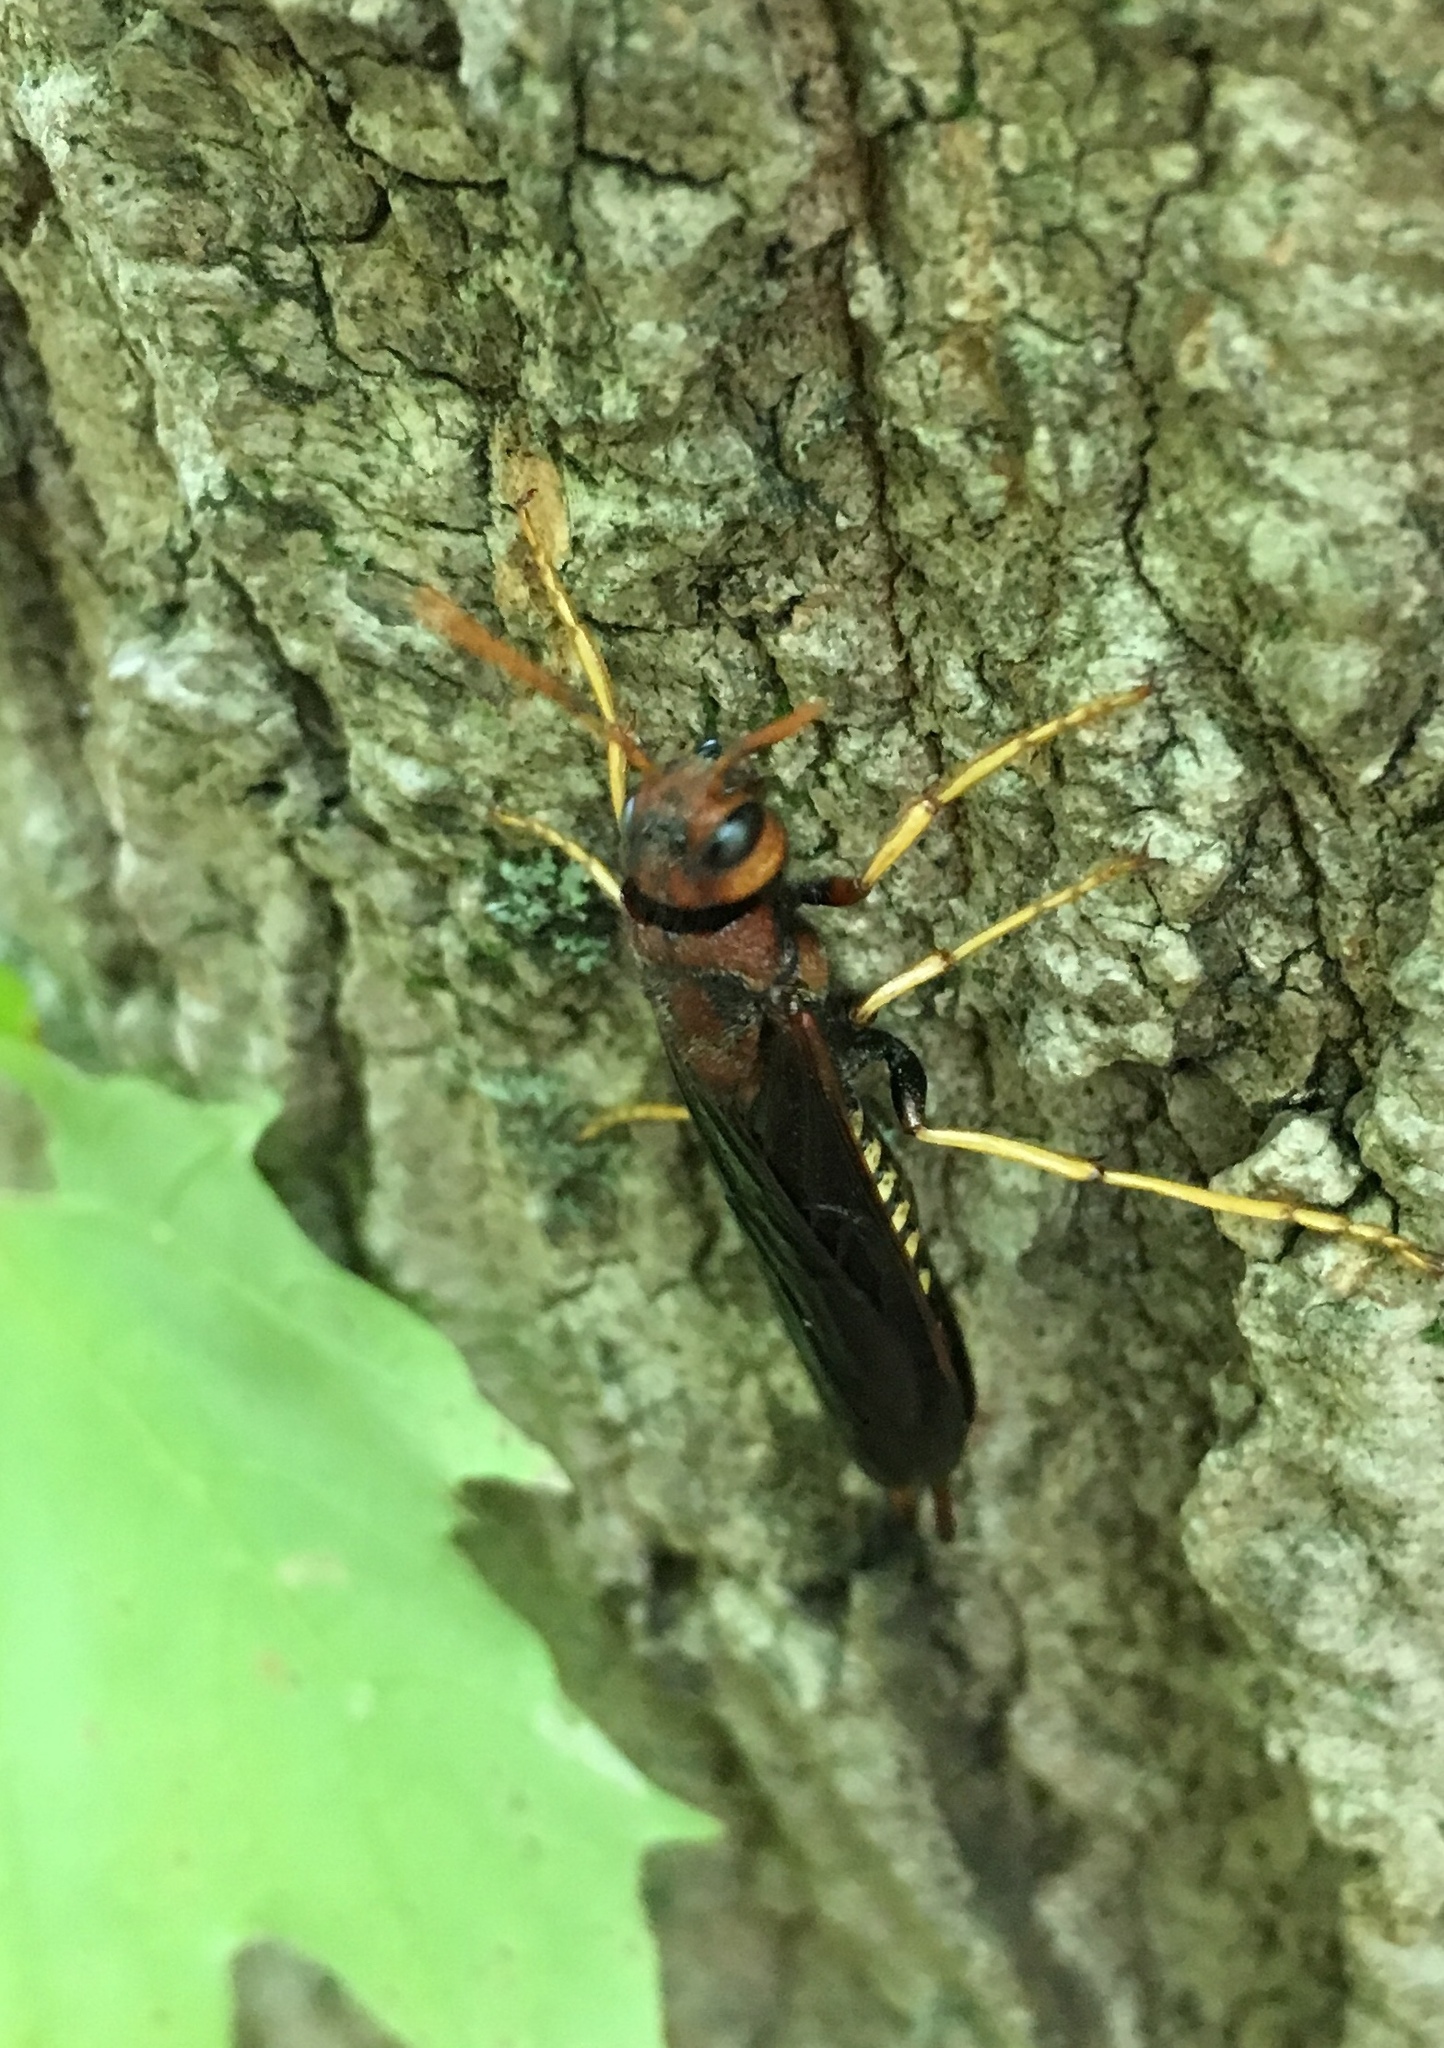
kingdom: Animalia
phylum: Arthropoda
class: Insecta
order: Hymenoptera
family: Siricidae
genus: Tremex
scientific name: Tremex columba
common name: Wasp
